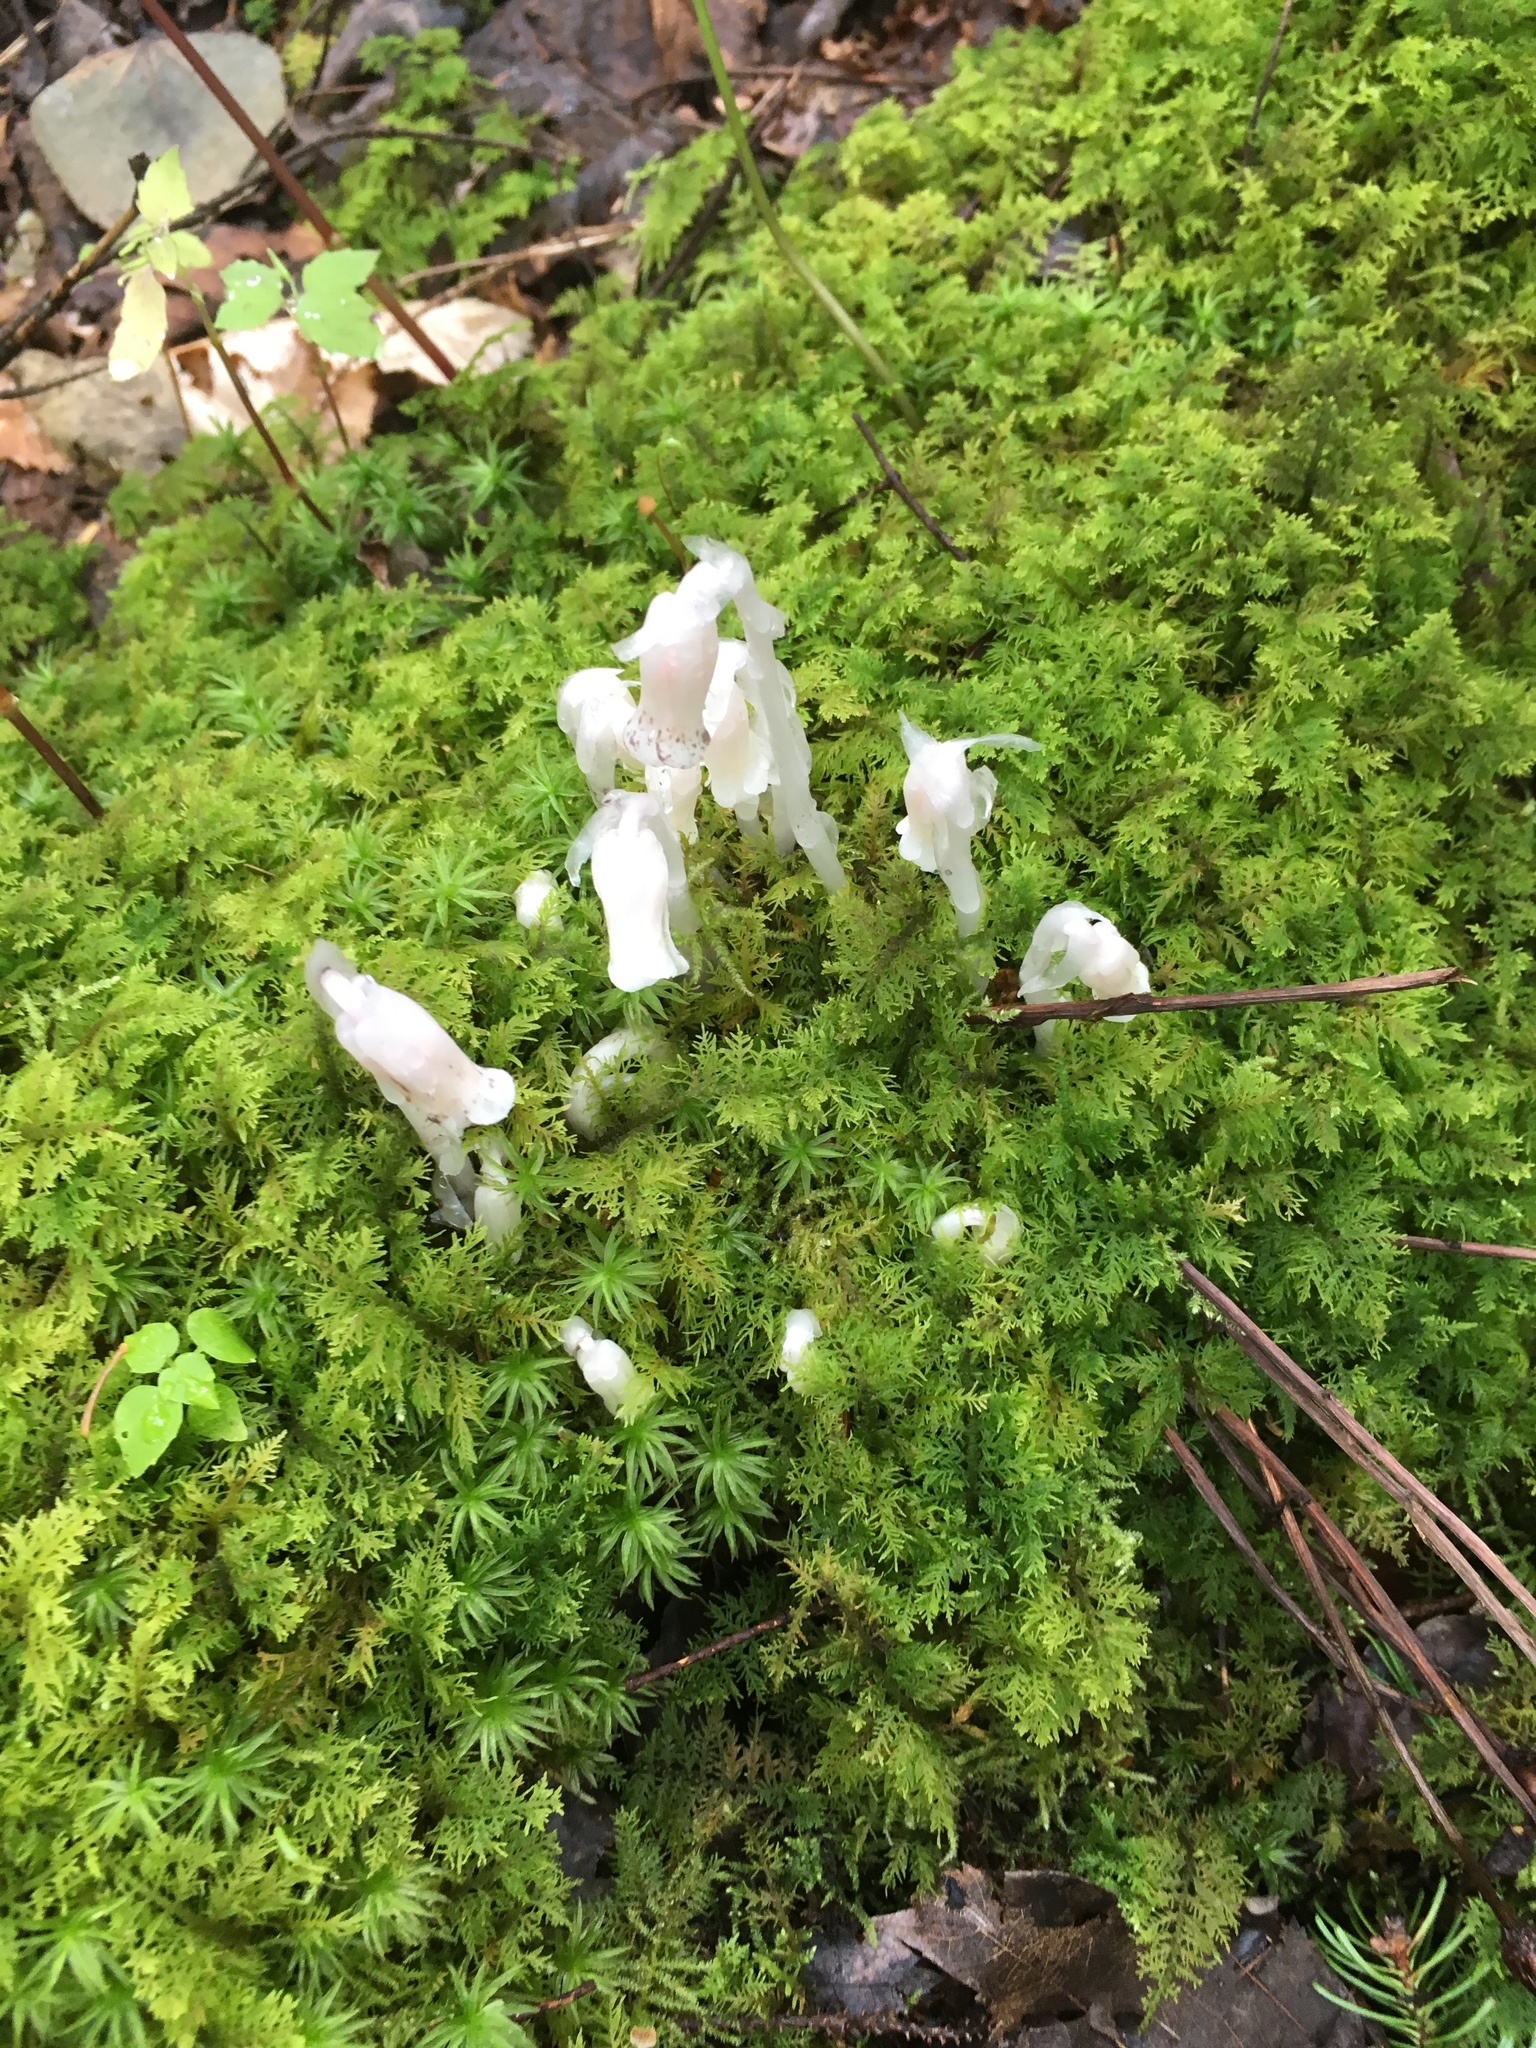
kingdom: Plantae
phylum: Tracheophyta
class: Magnoliopsida
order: Ericales
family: Ericaceae
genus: Monotropa
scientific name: Monotropa uniflora
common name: Convulsion root
